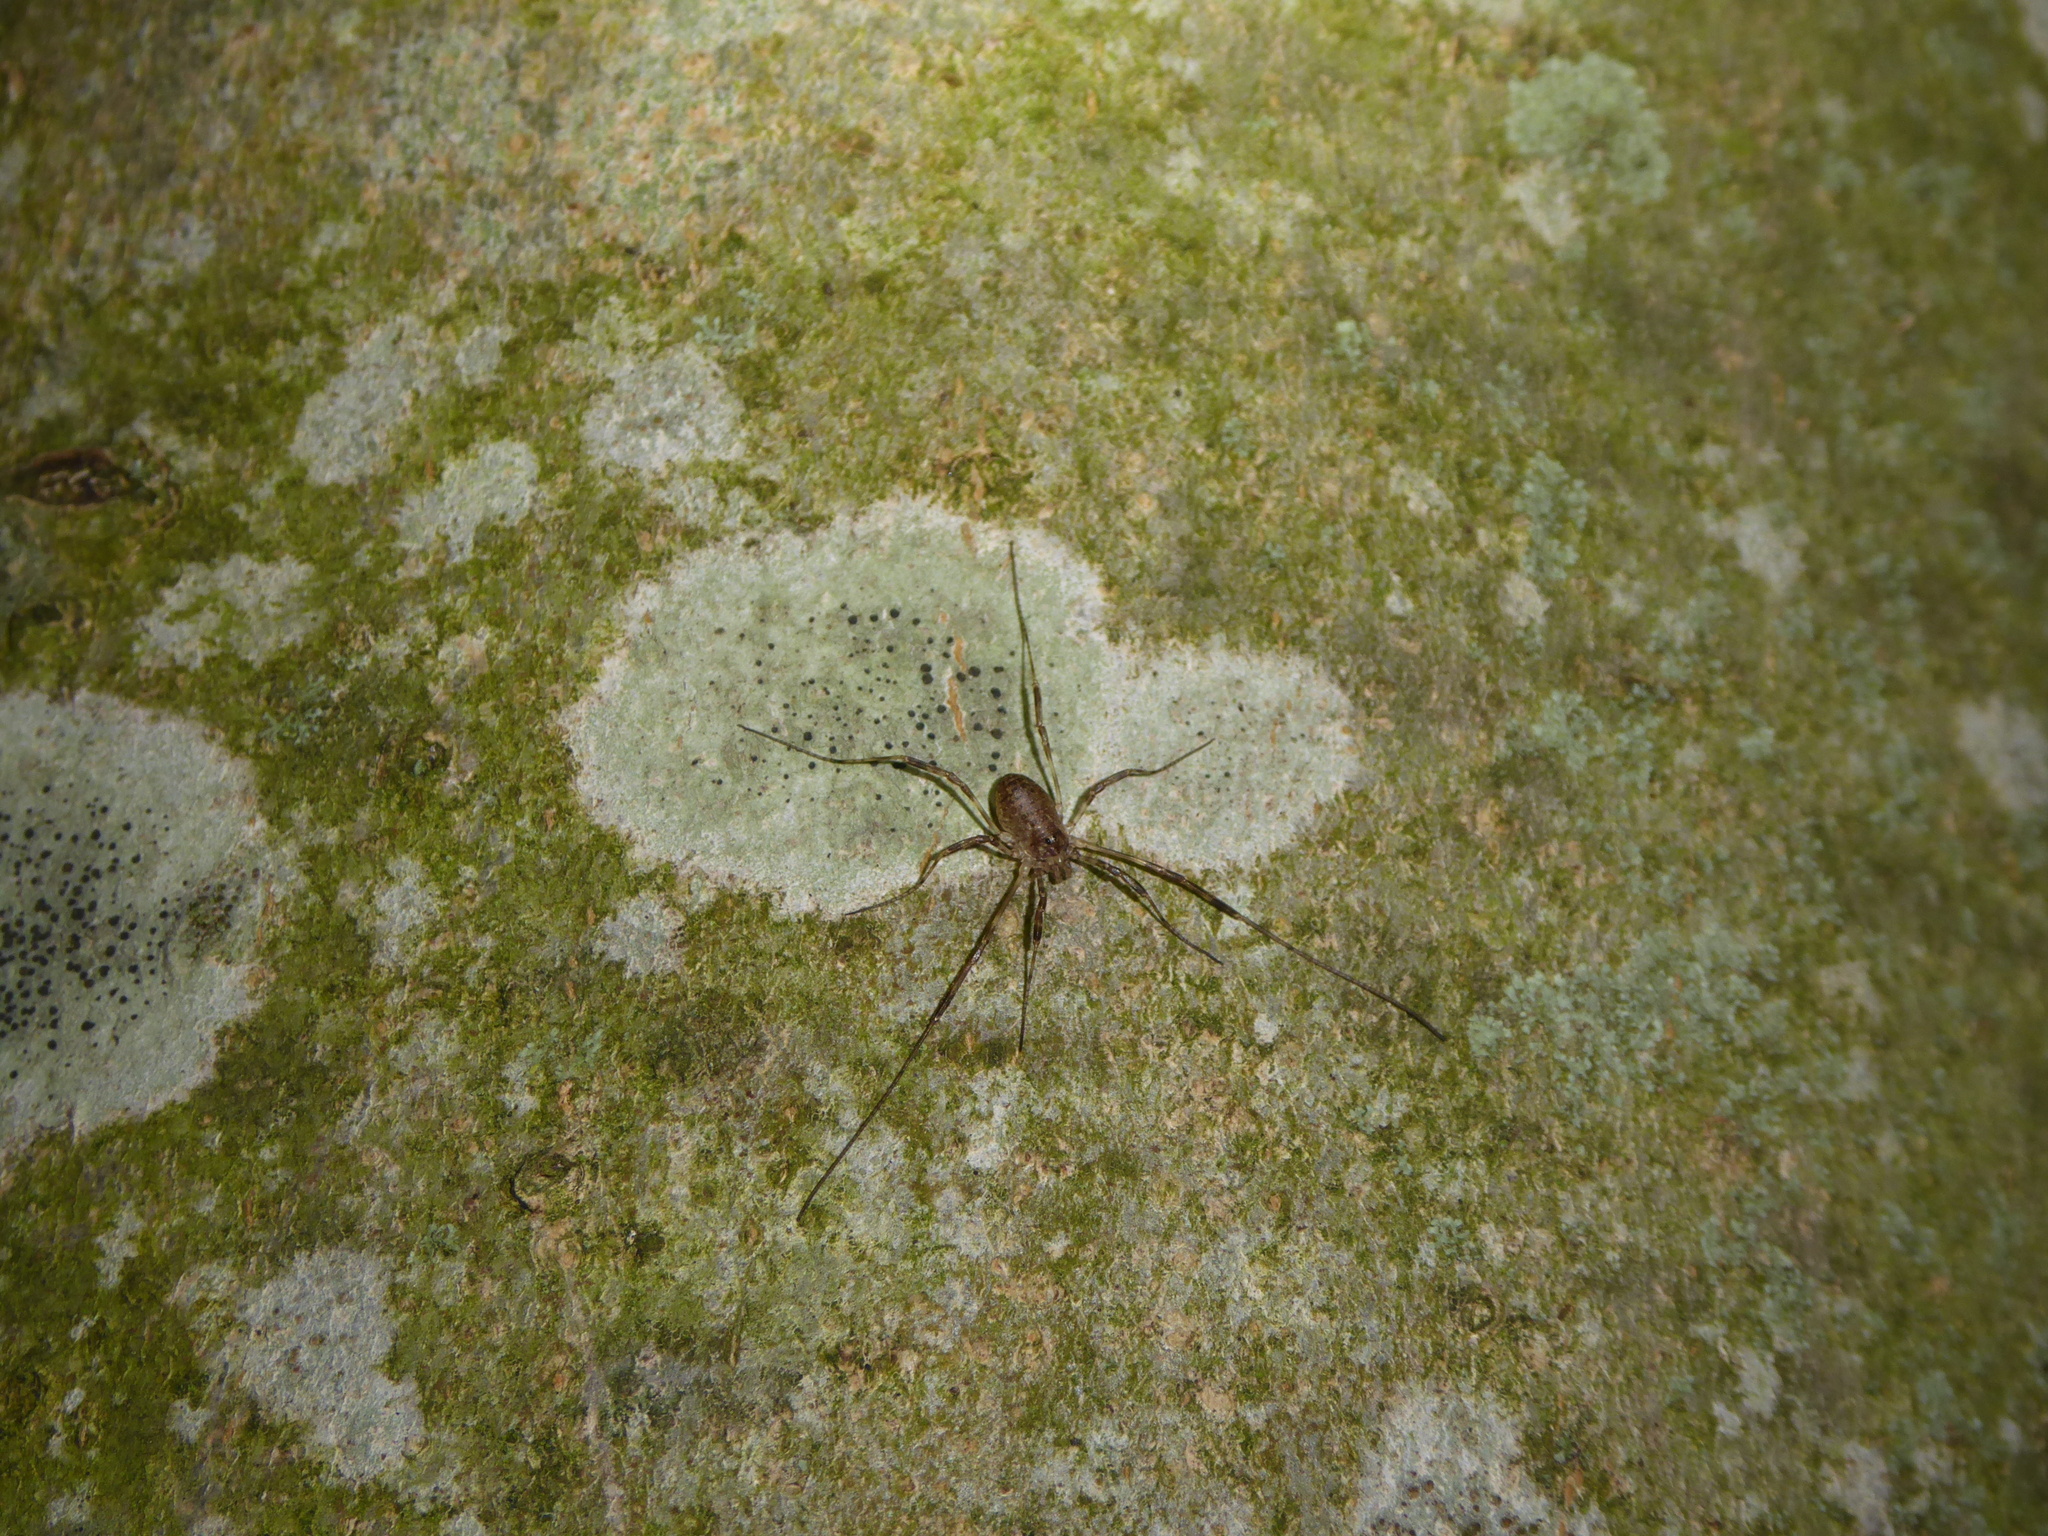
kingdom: Animalia
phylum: Arthropoda
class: Arachnida
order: Opiliones
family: Phalangiidae
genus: Paroligolophus
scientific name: Paroligolophus agrestis
